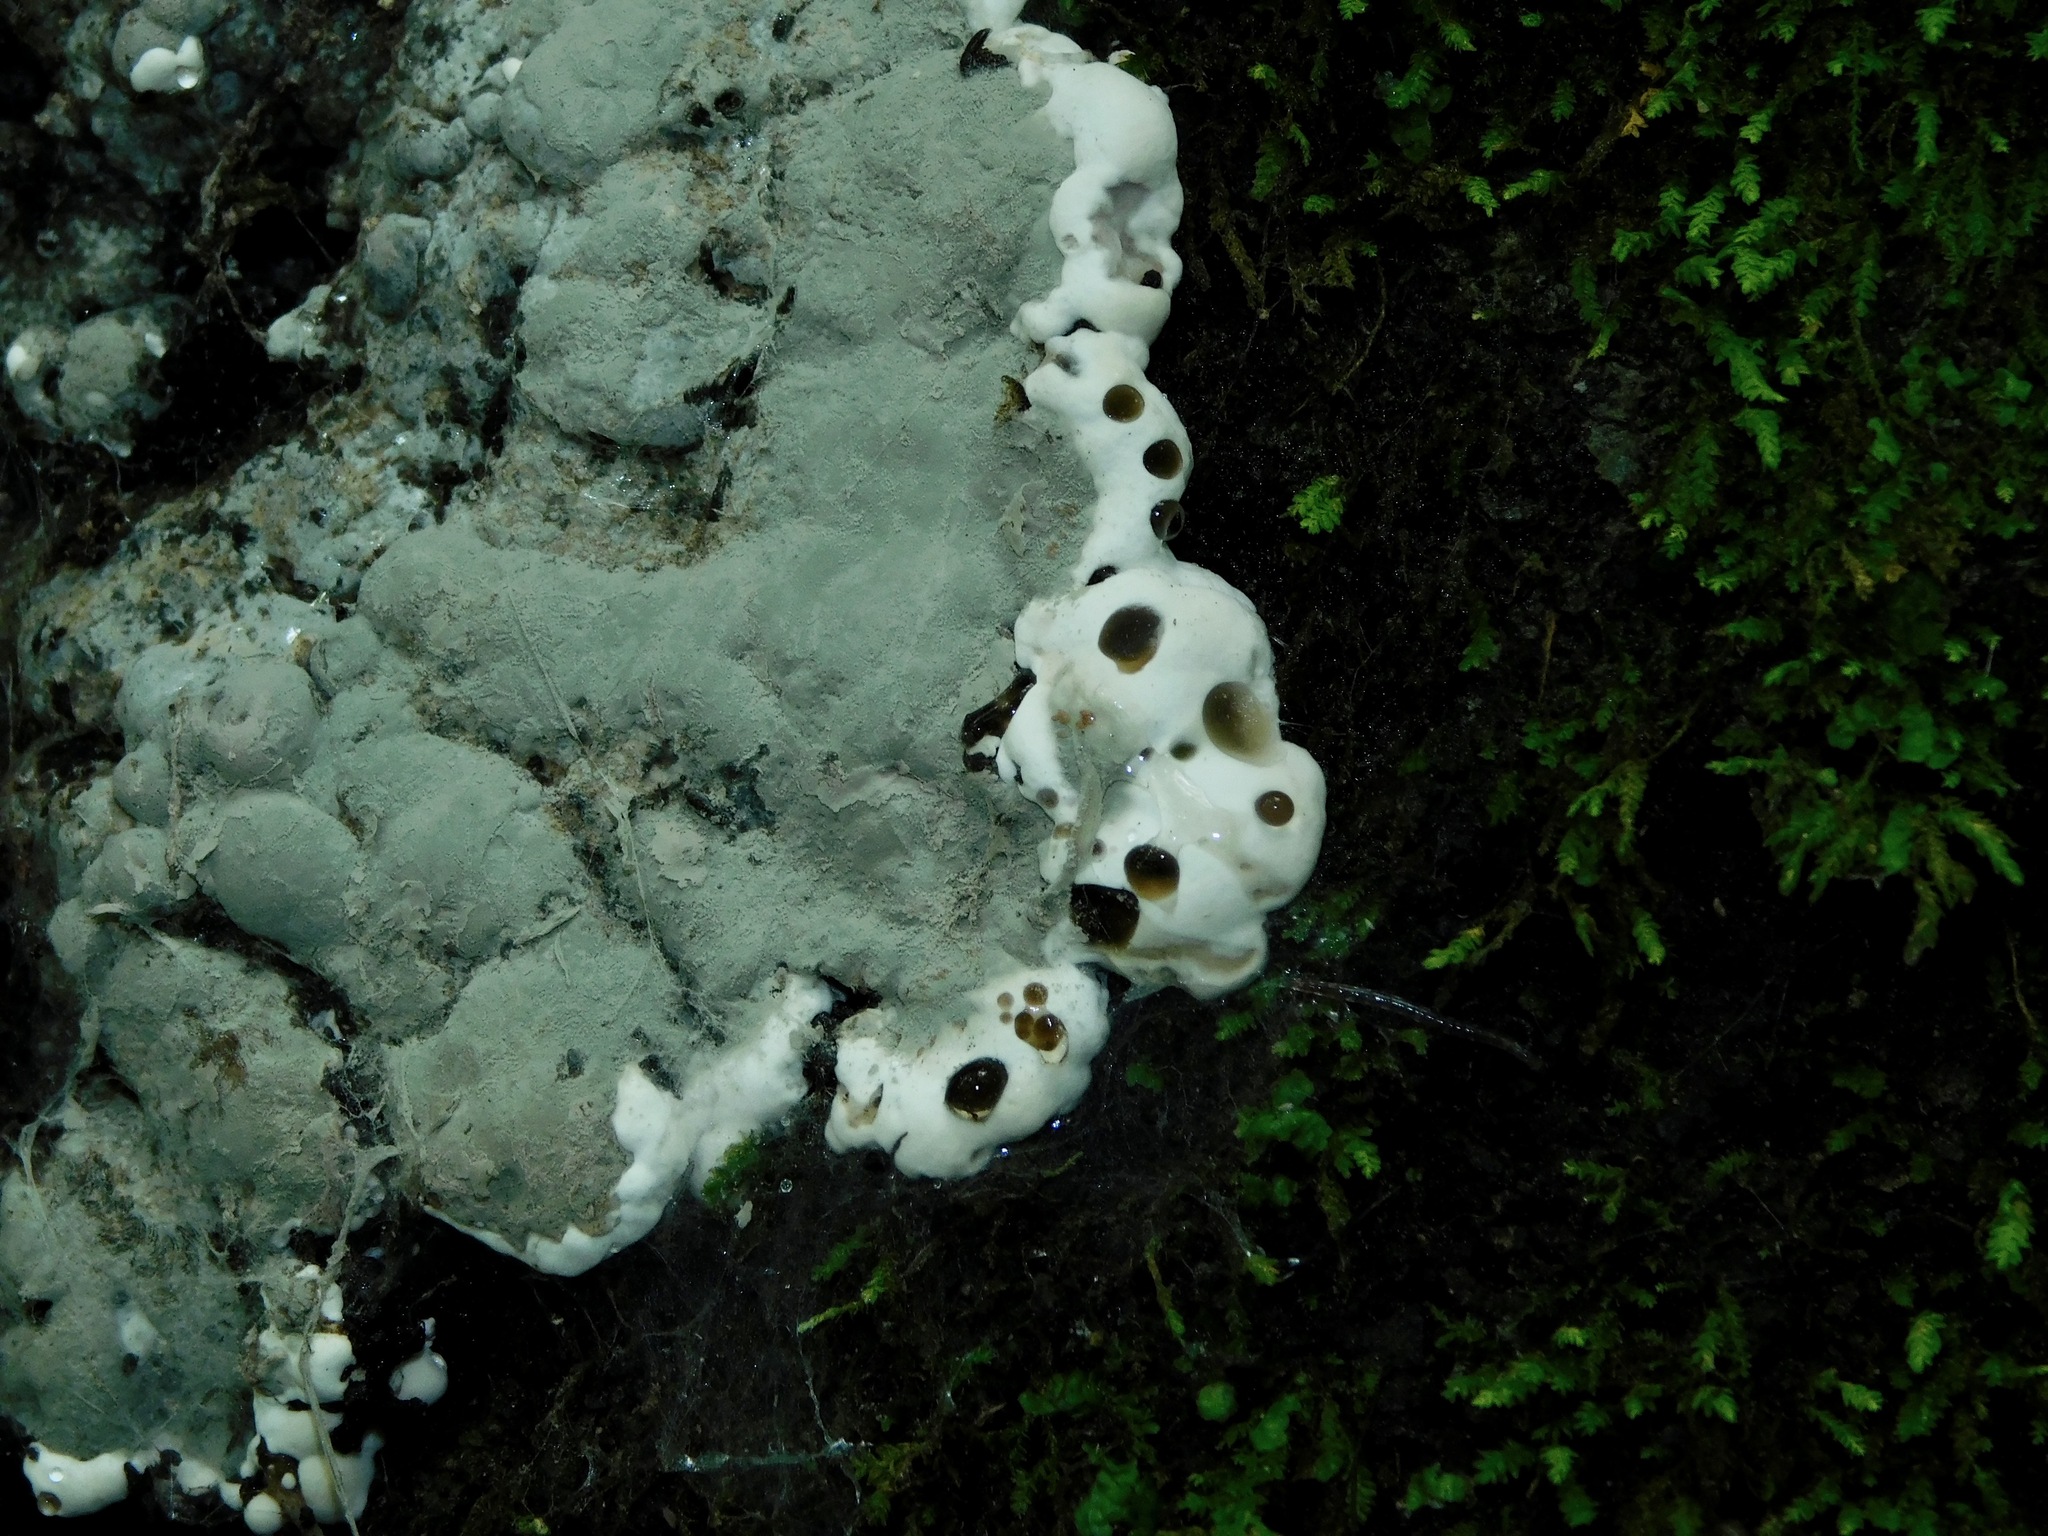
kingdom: Fungi
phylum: Ascomycota
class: Sordariomycetes
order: Xylariales
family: Xylariaceae
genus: Kretzschmaria
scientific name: Kretzschmaria deusta
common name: Brittle cinder
